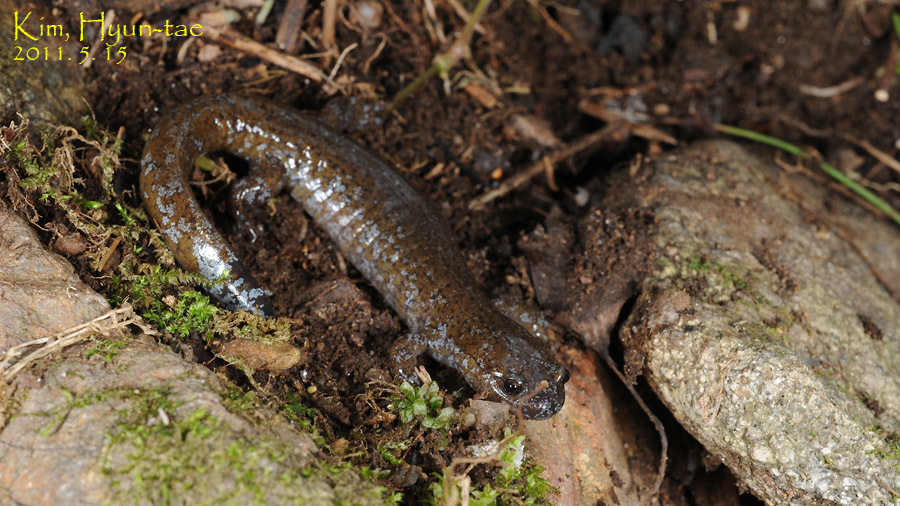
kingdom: Animalia
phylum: Chordata
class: Amphibia
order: Caudata
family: Hynobiidae
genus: Hynobius
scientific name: Hynobius leechii
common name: Gensan salamander
